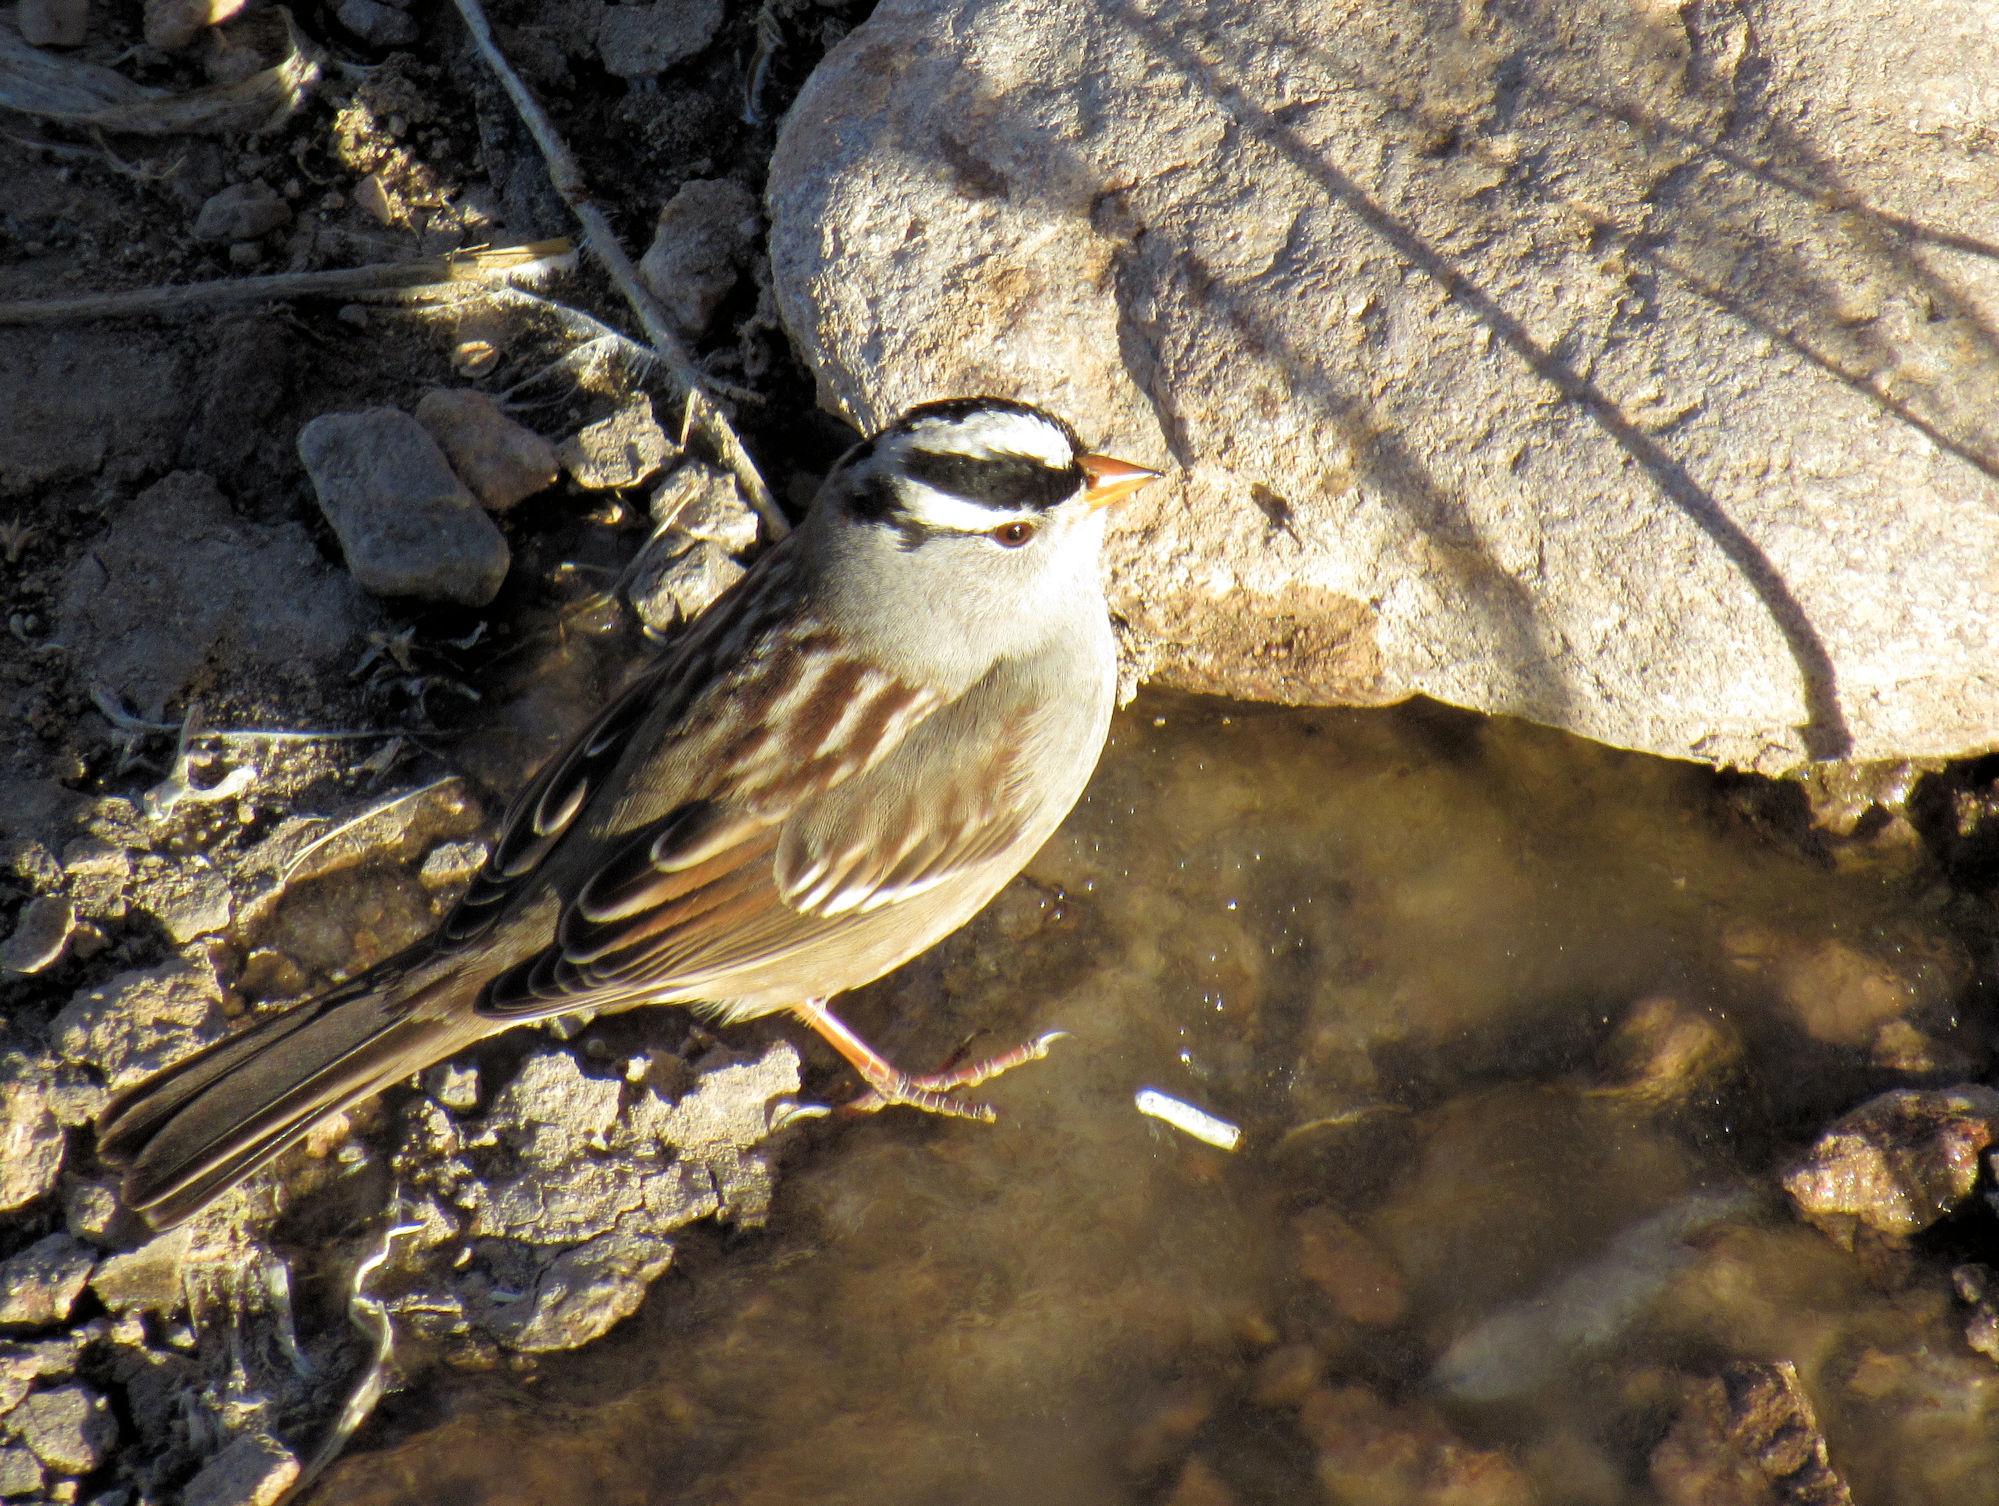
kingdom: Animalia
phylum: Chordata
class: Aves
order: Passeriformes
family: Passerellidae
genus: Zonotrichia
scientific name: Zonotrichia leucophrys
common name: White-crowned sparrow
